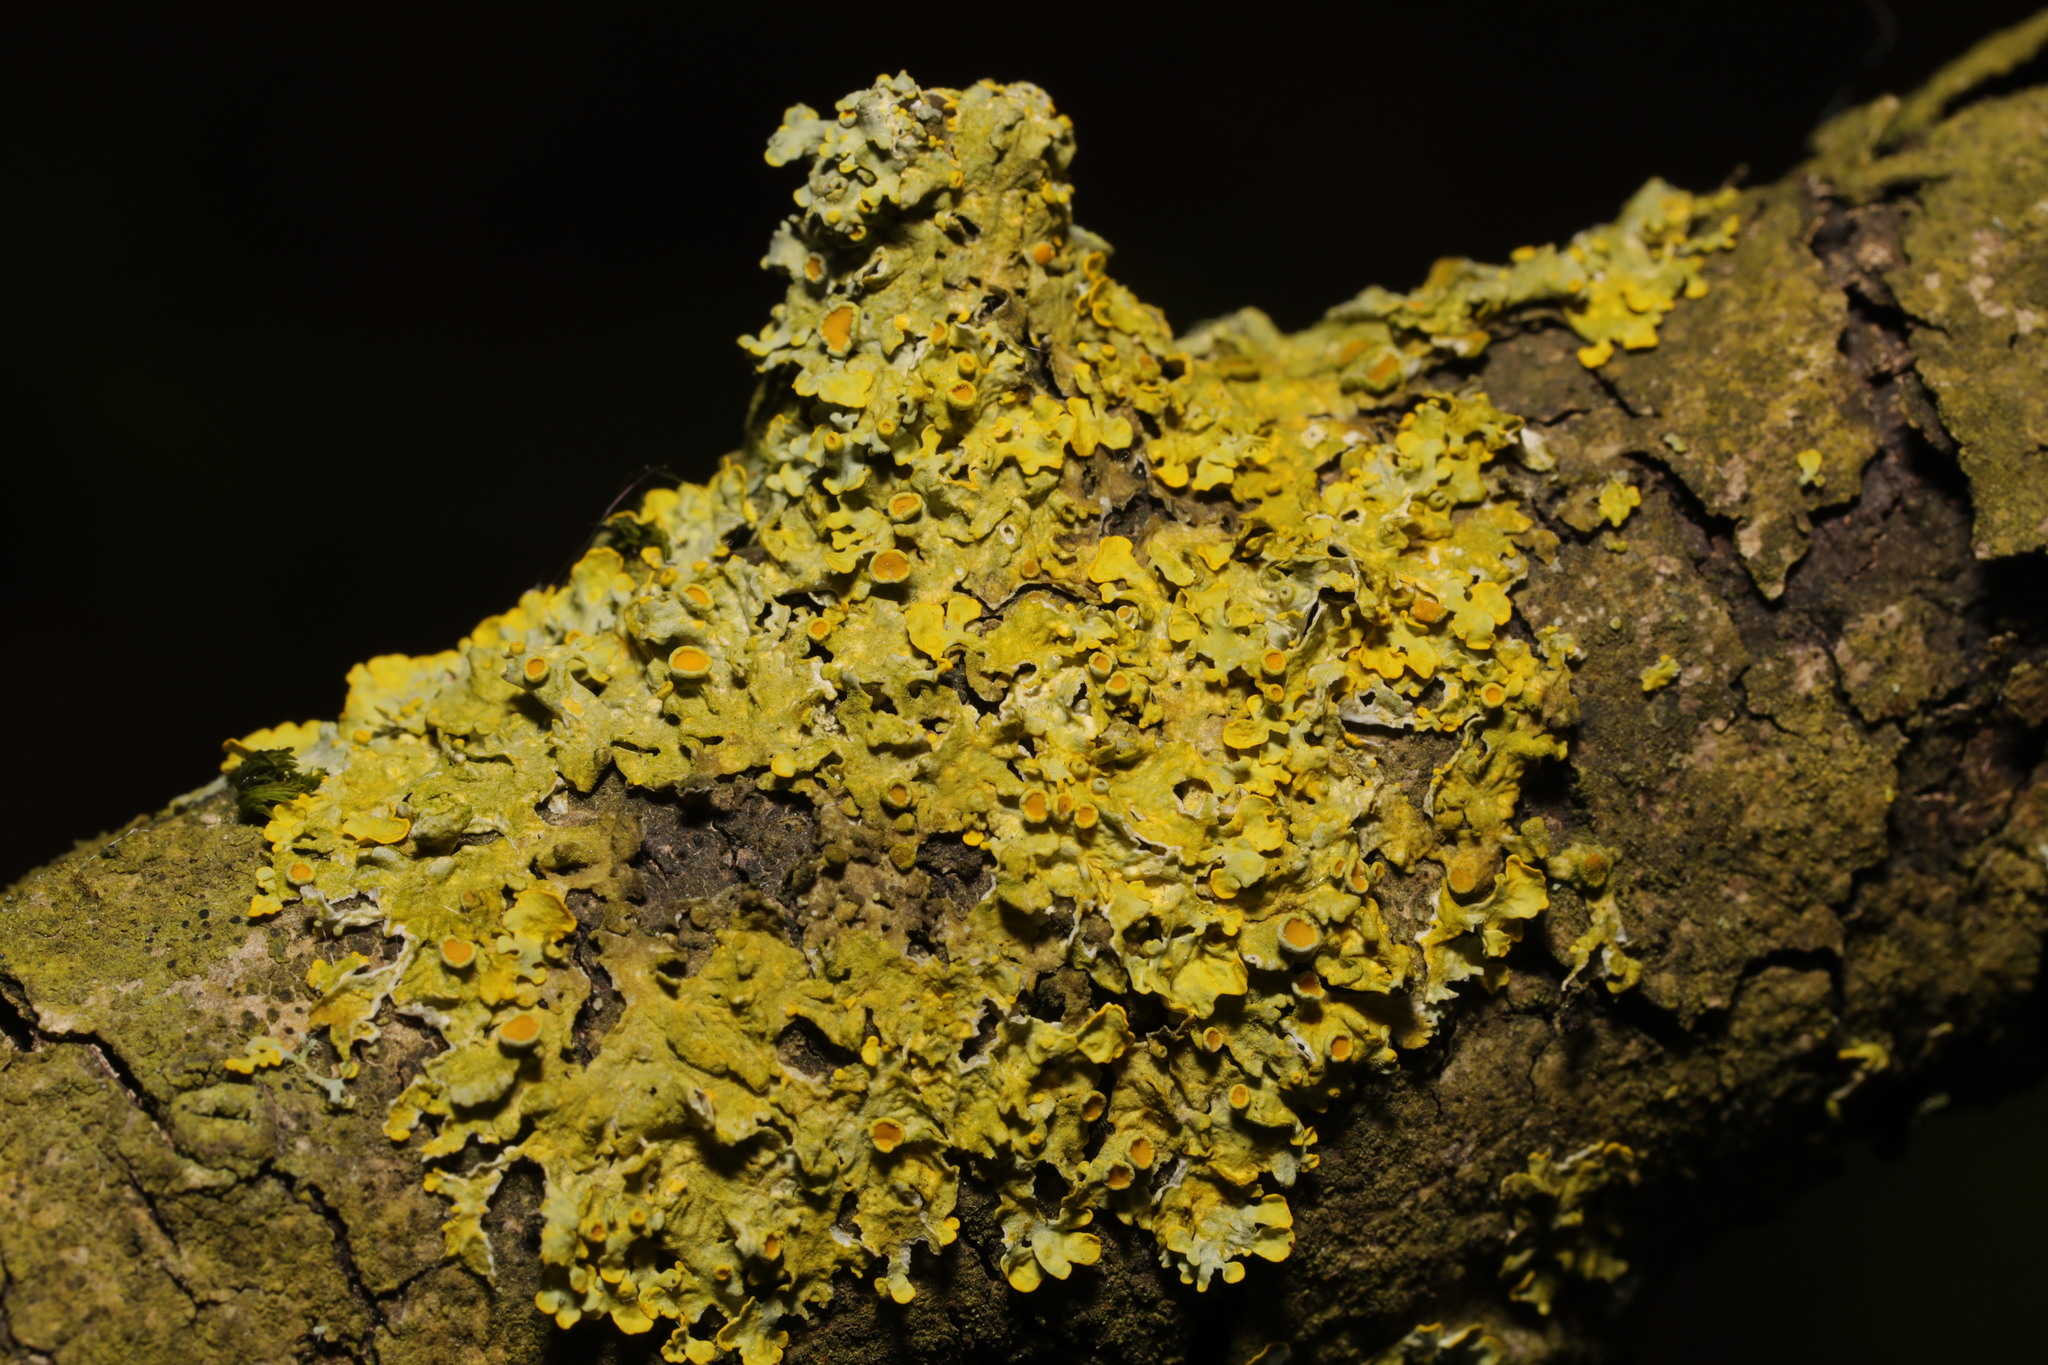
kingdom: Fungi
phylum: Ascomycota
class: Lecanoromycetes
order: Teloschistales
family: Teloschistaceae
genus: Xanthoria
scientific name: Xanthoria parietina
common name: Common orange lichen
